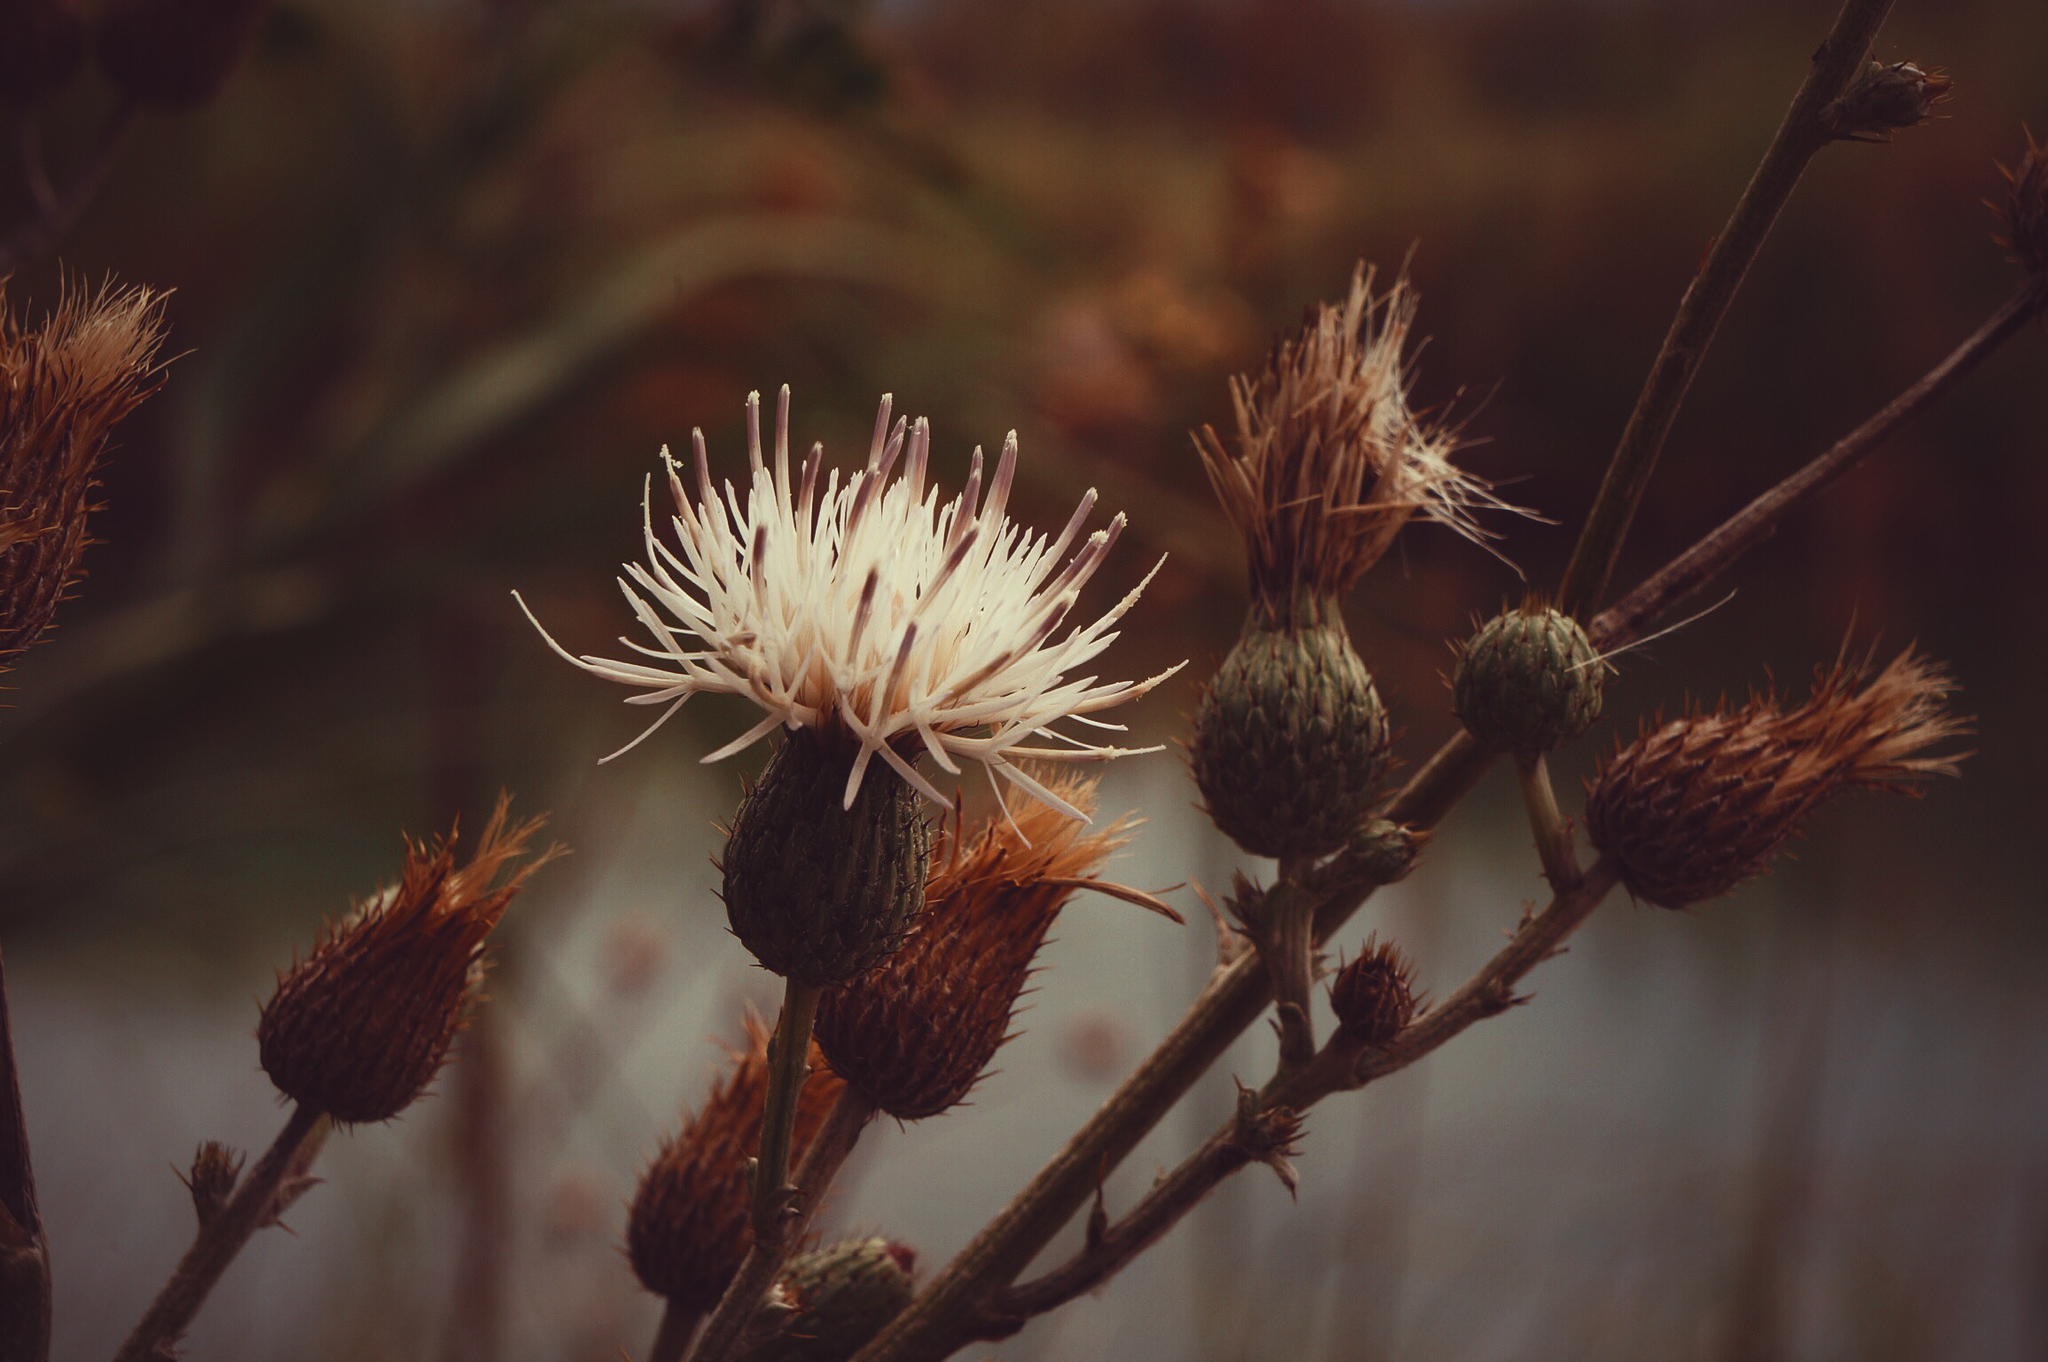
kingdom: Plantae
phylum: Tracheophyta
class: Magnoliopsida
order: Asterales
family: Asteraceae
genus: Cirsium
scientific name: Cirsium coahuilense
